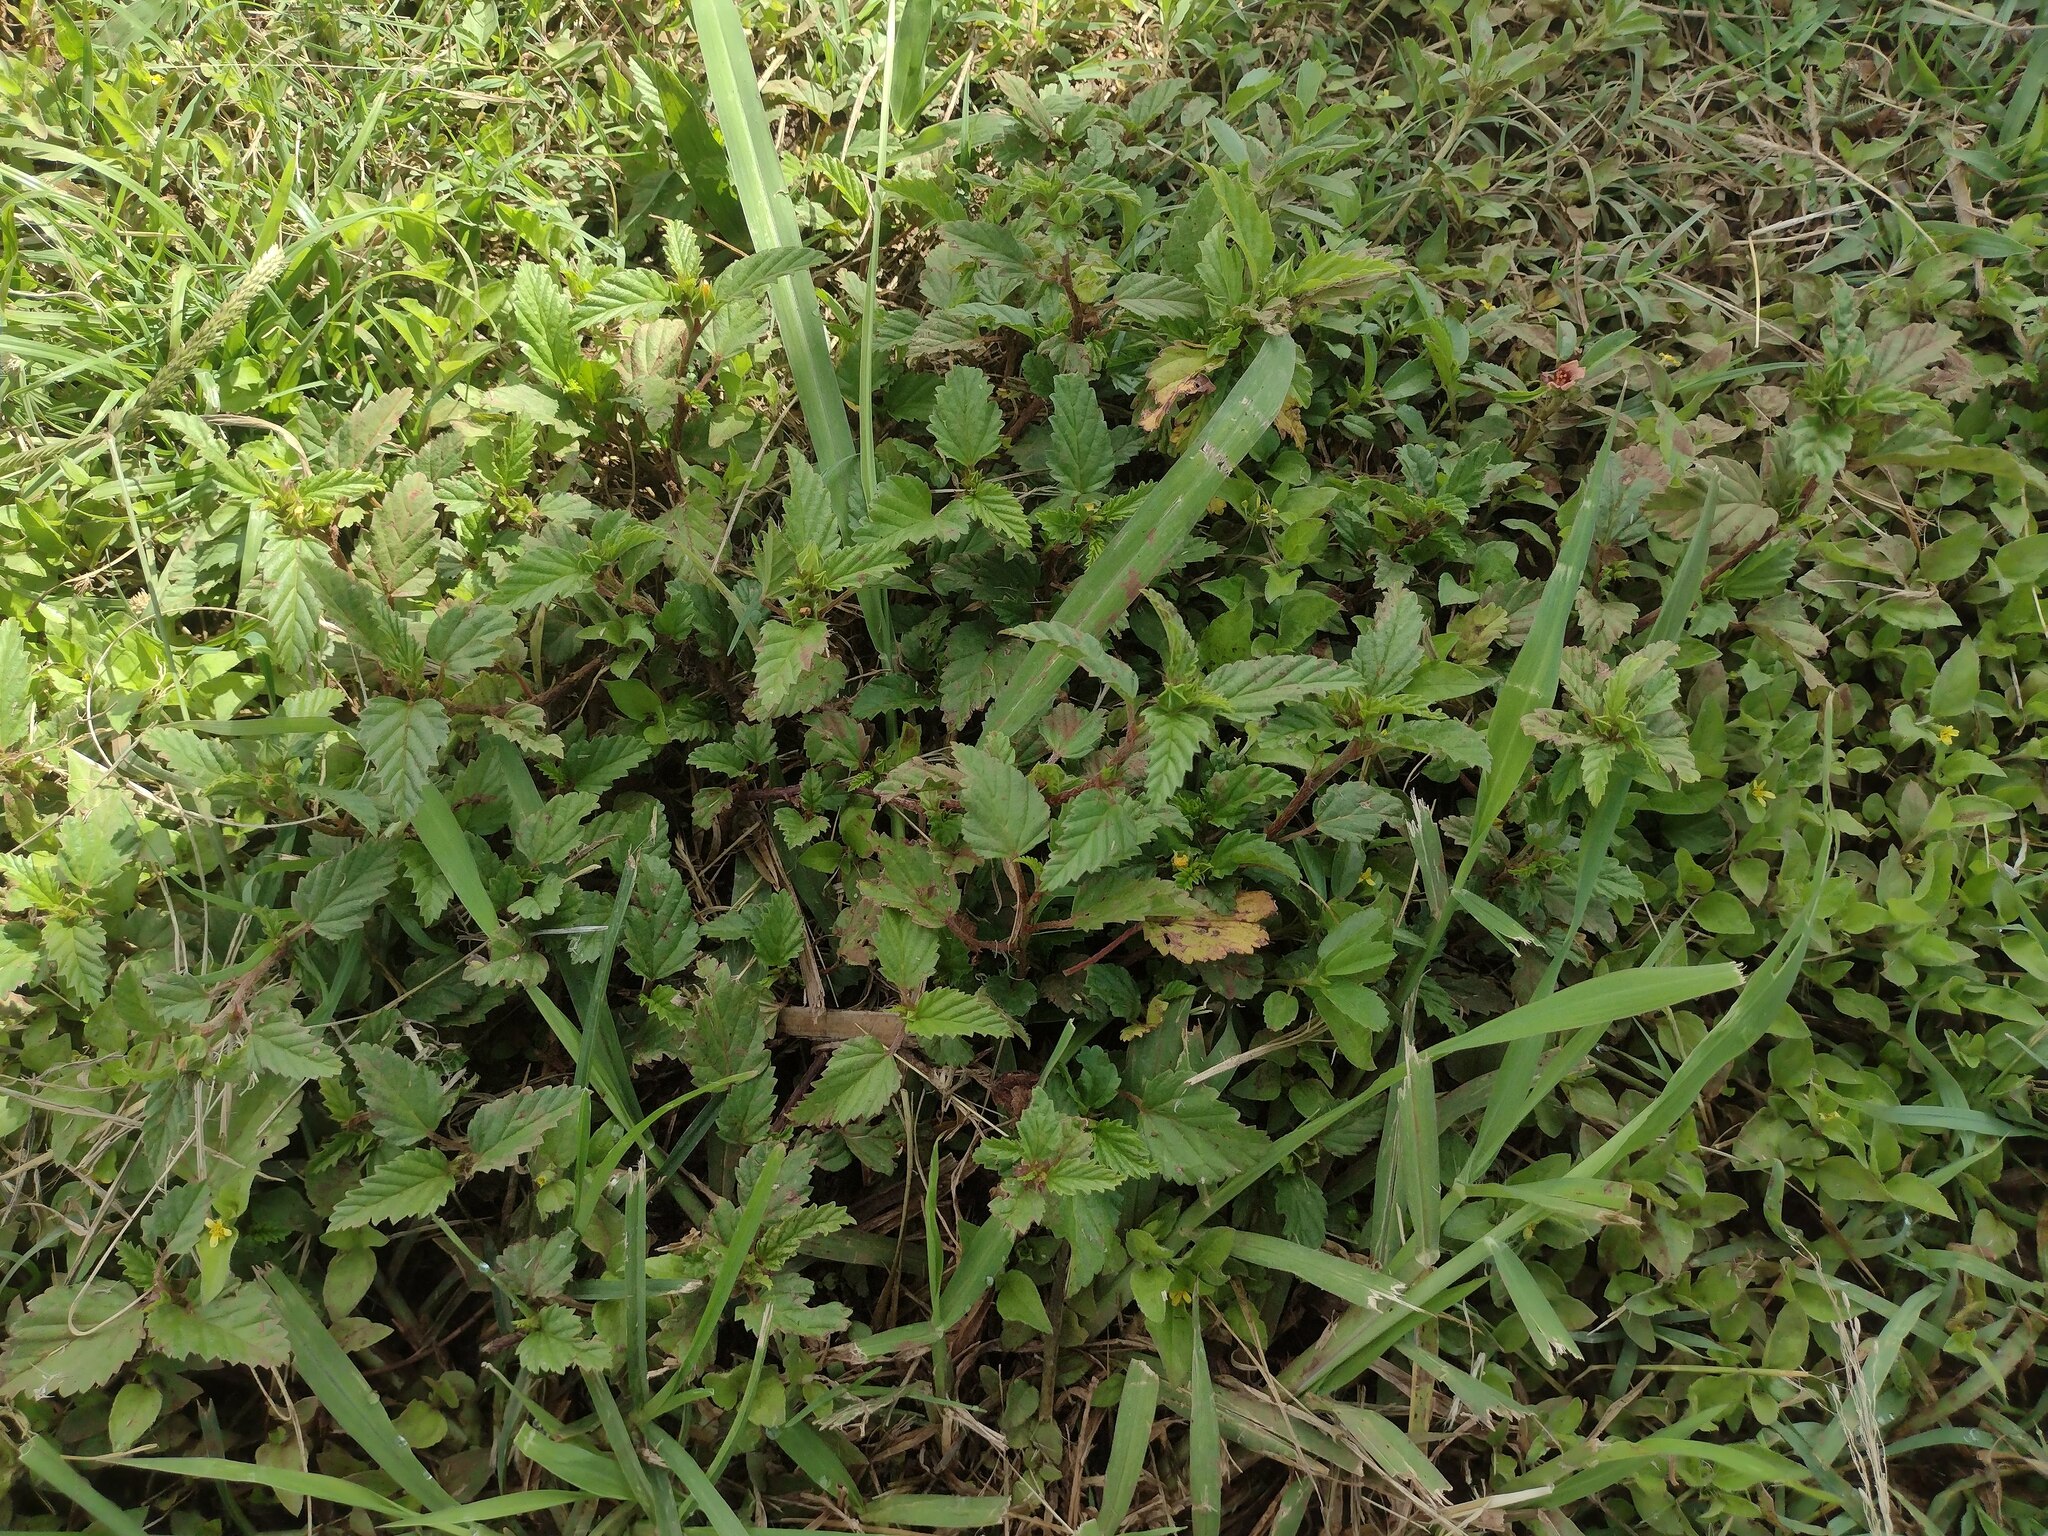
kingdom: Plantae
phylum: Tracheophyta
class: Magnoliopsida
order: Malvales
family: Malvaceae
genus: Malvastrum
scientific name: Malvastrum coromandelianum
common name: Threelobe false mallow
